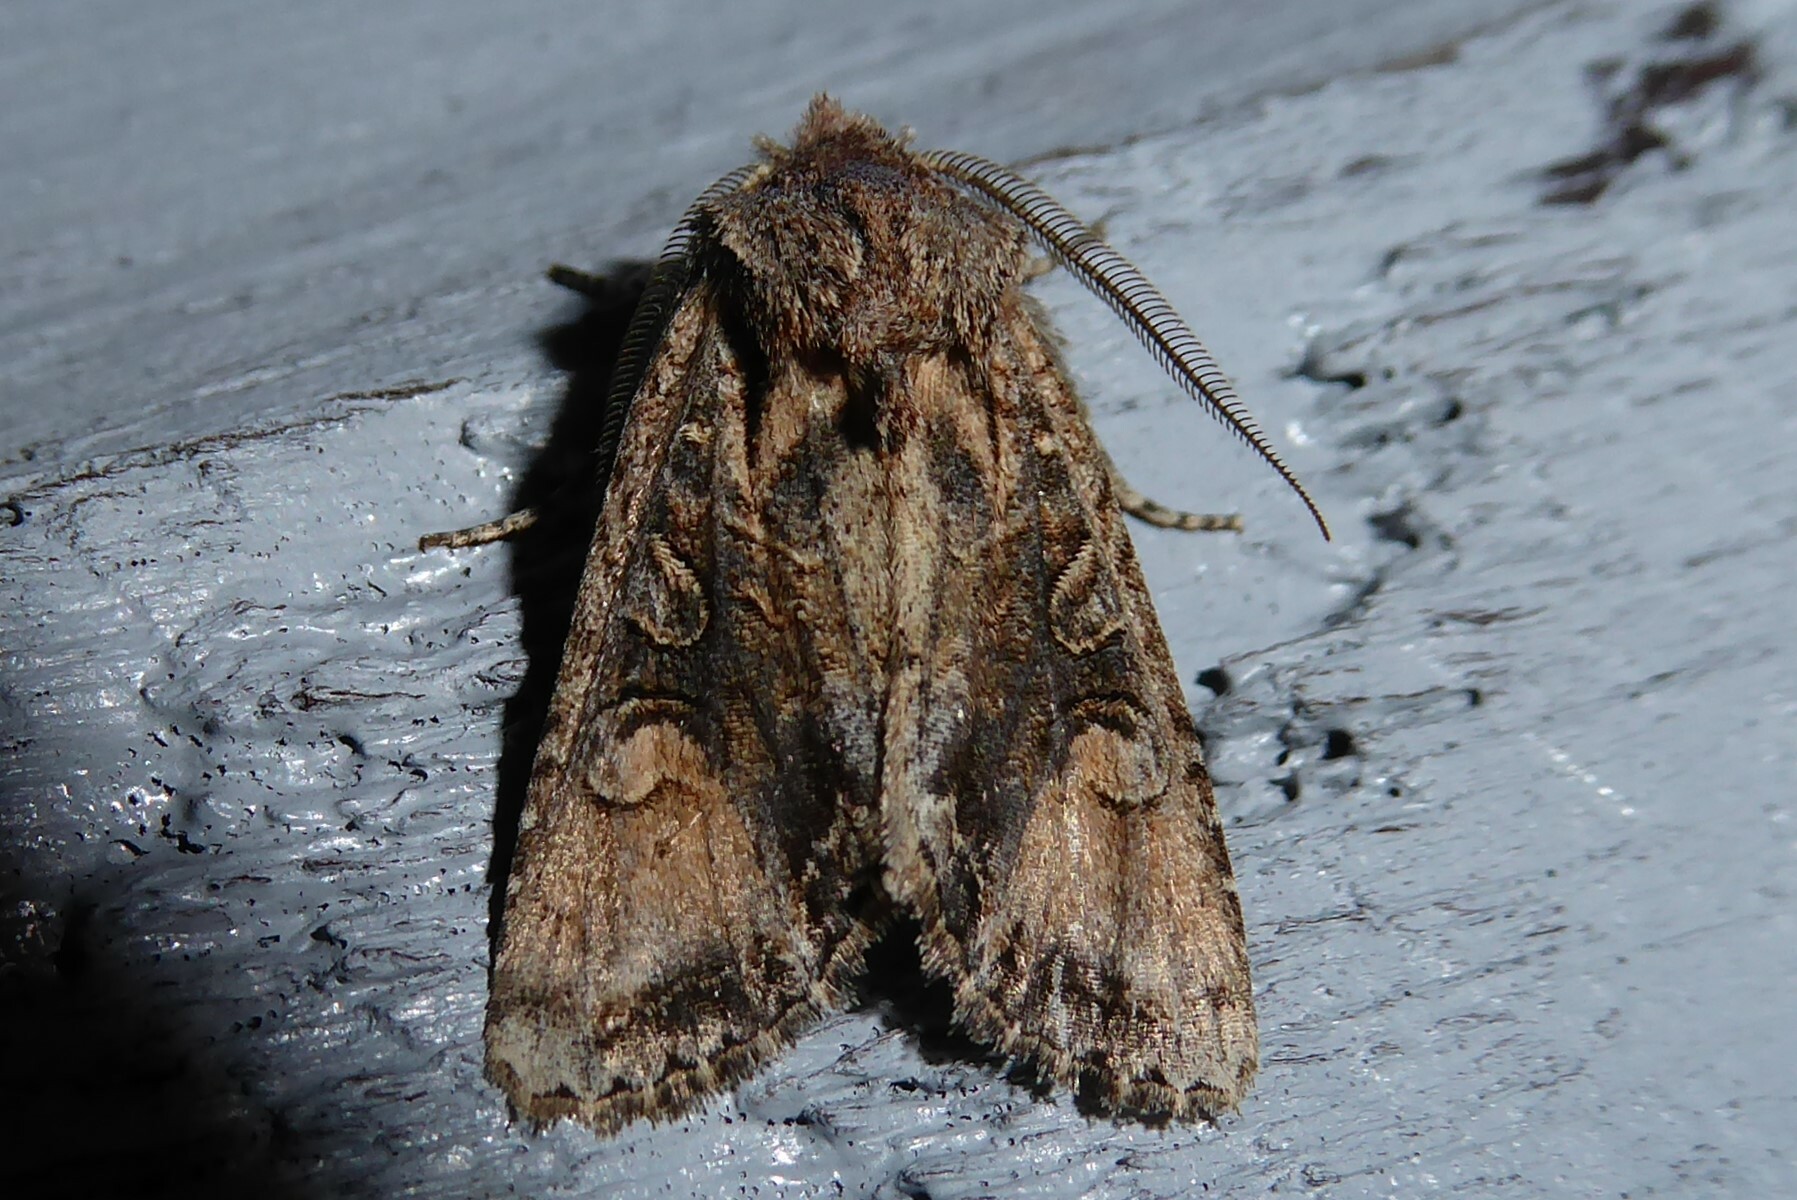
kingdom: Animalia
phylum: Arthropoda
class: Insecta
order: Lepidoptera
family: Noctuidae
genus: Ichneutica
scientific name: Ichneutica
